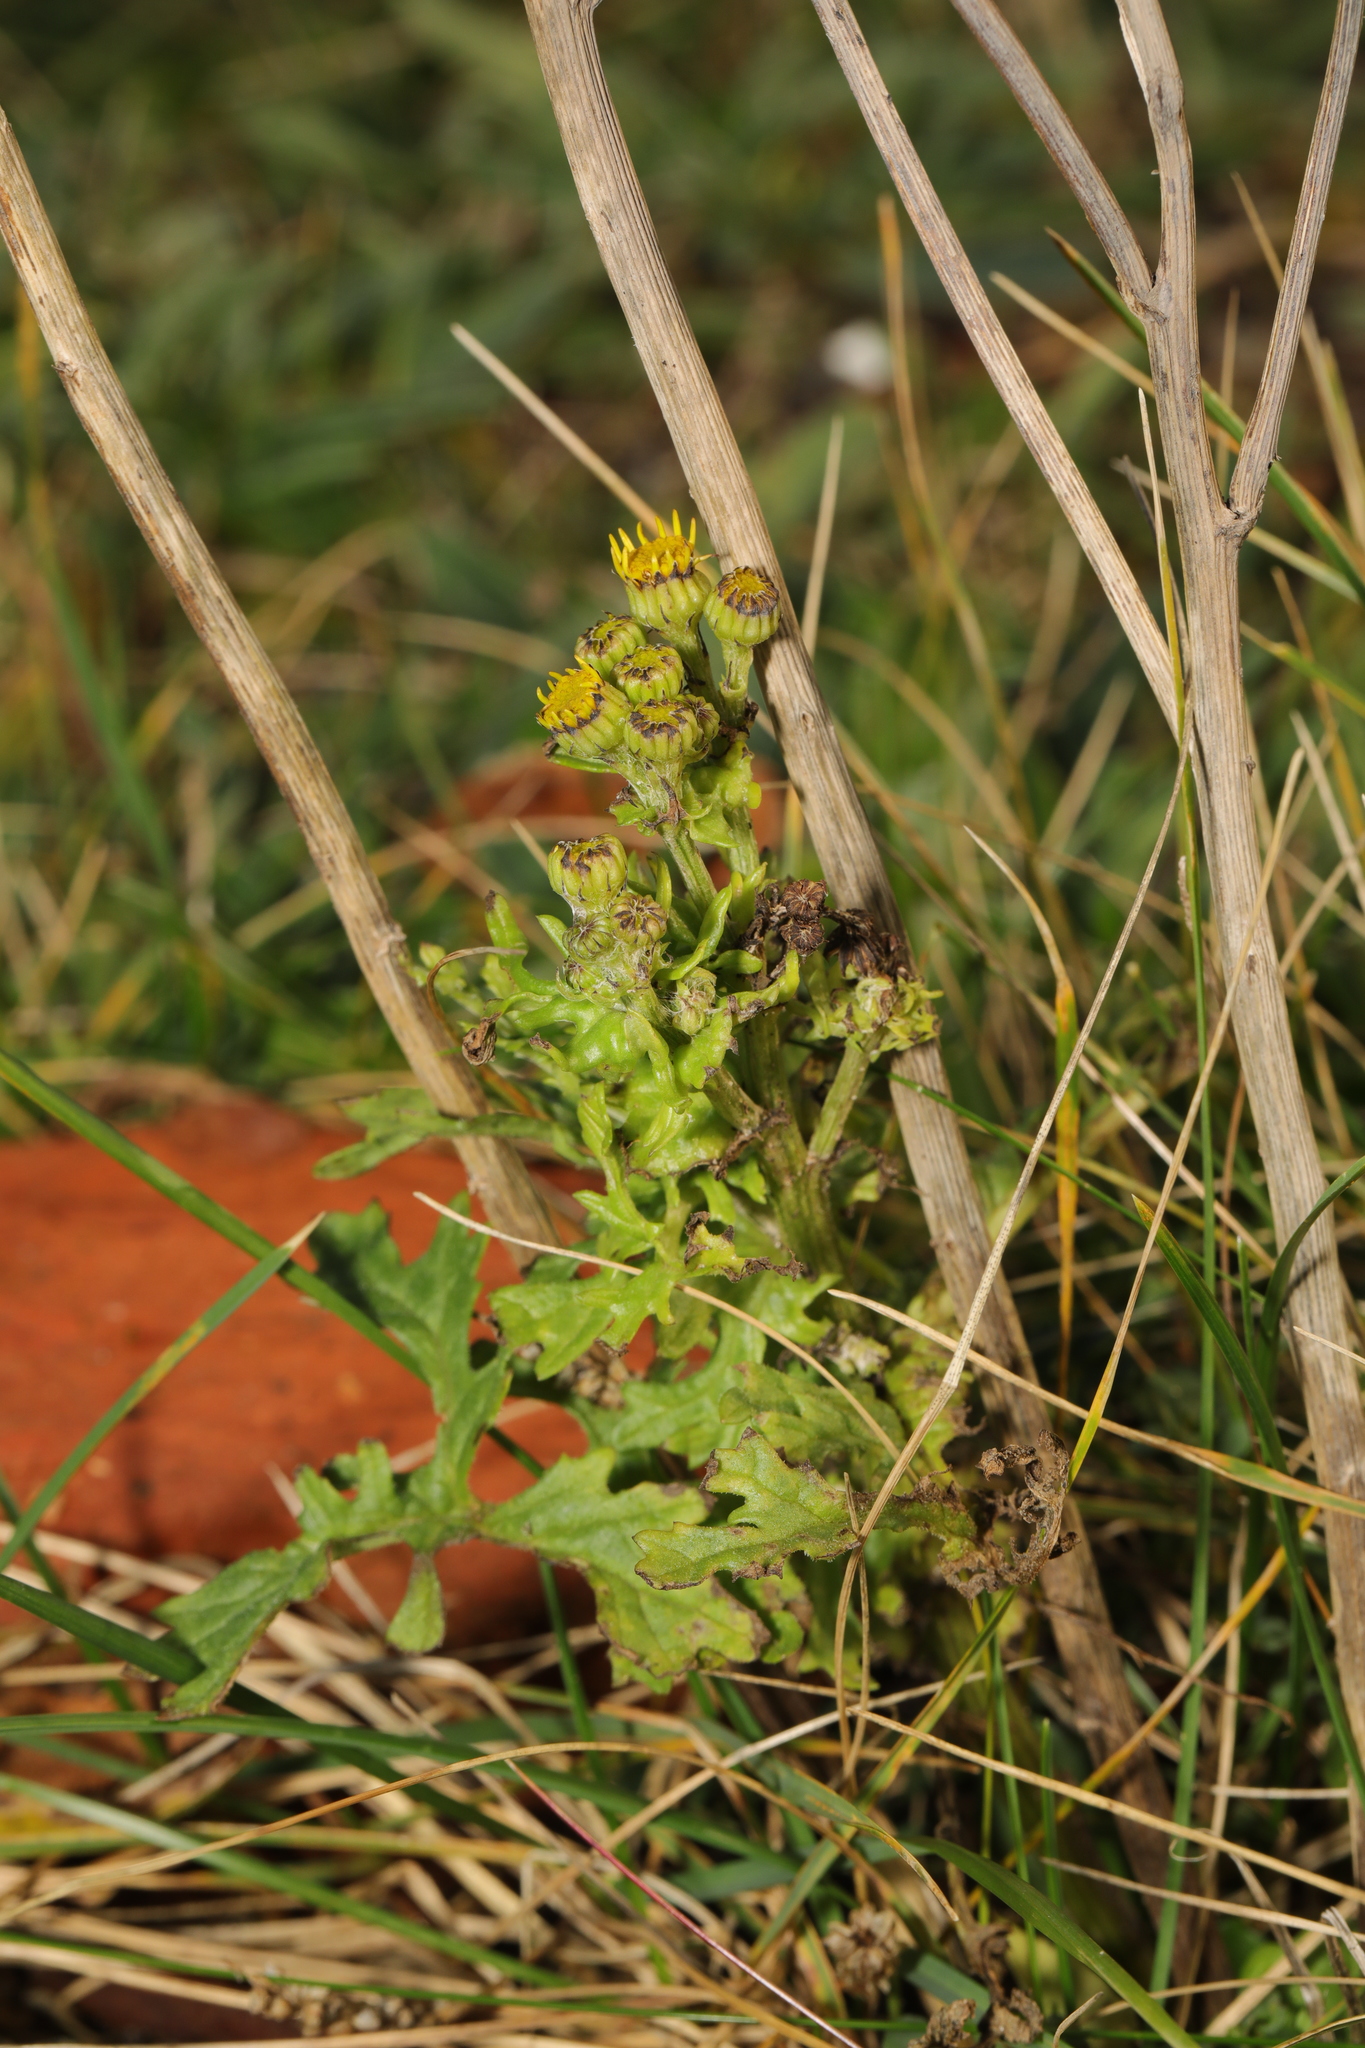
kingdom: Plantae
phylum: Tracheophyta
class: Magnoliopsida
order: Asterales
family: Asteraceae
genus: Jacobaea
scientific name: Jacobaea vulgaris
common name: Stinking willie
